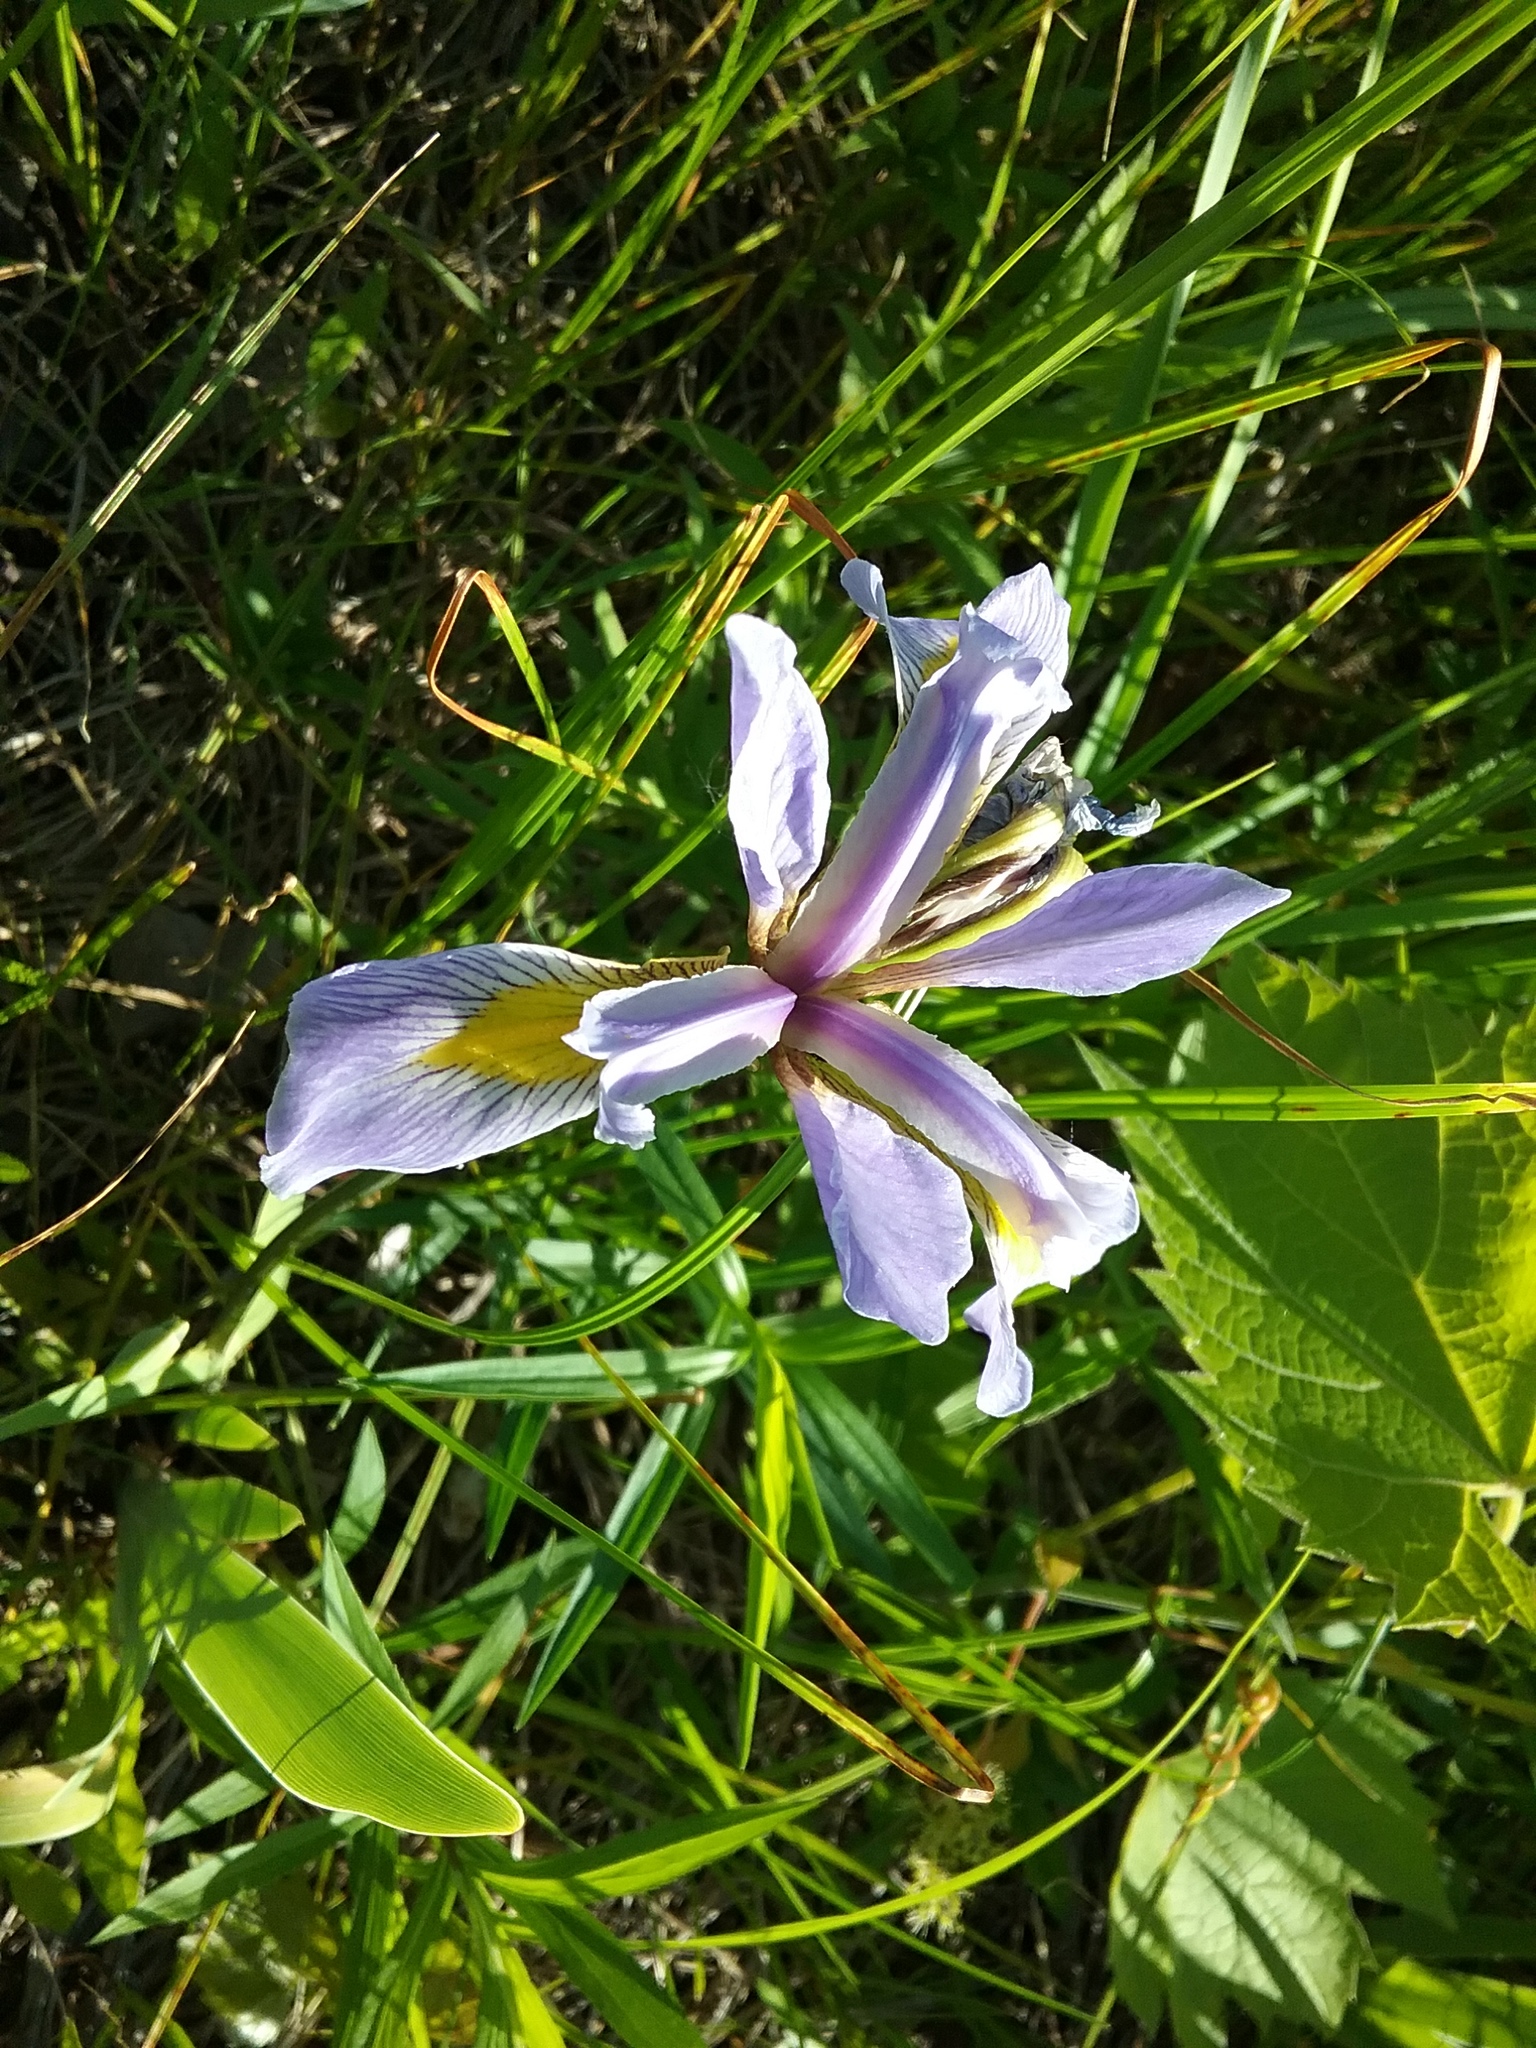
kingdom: Plantae
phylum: Tracheophyta
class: Liliopsida
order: Asparagales
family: Iridaceae
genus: Iris
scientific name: Iris virginica
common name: Southern blue flag
